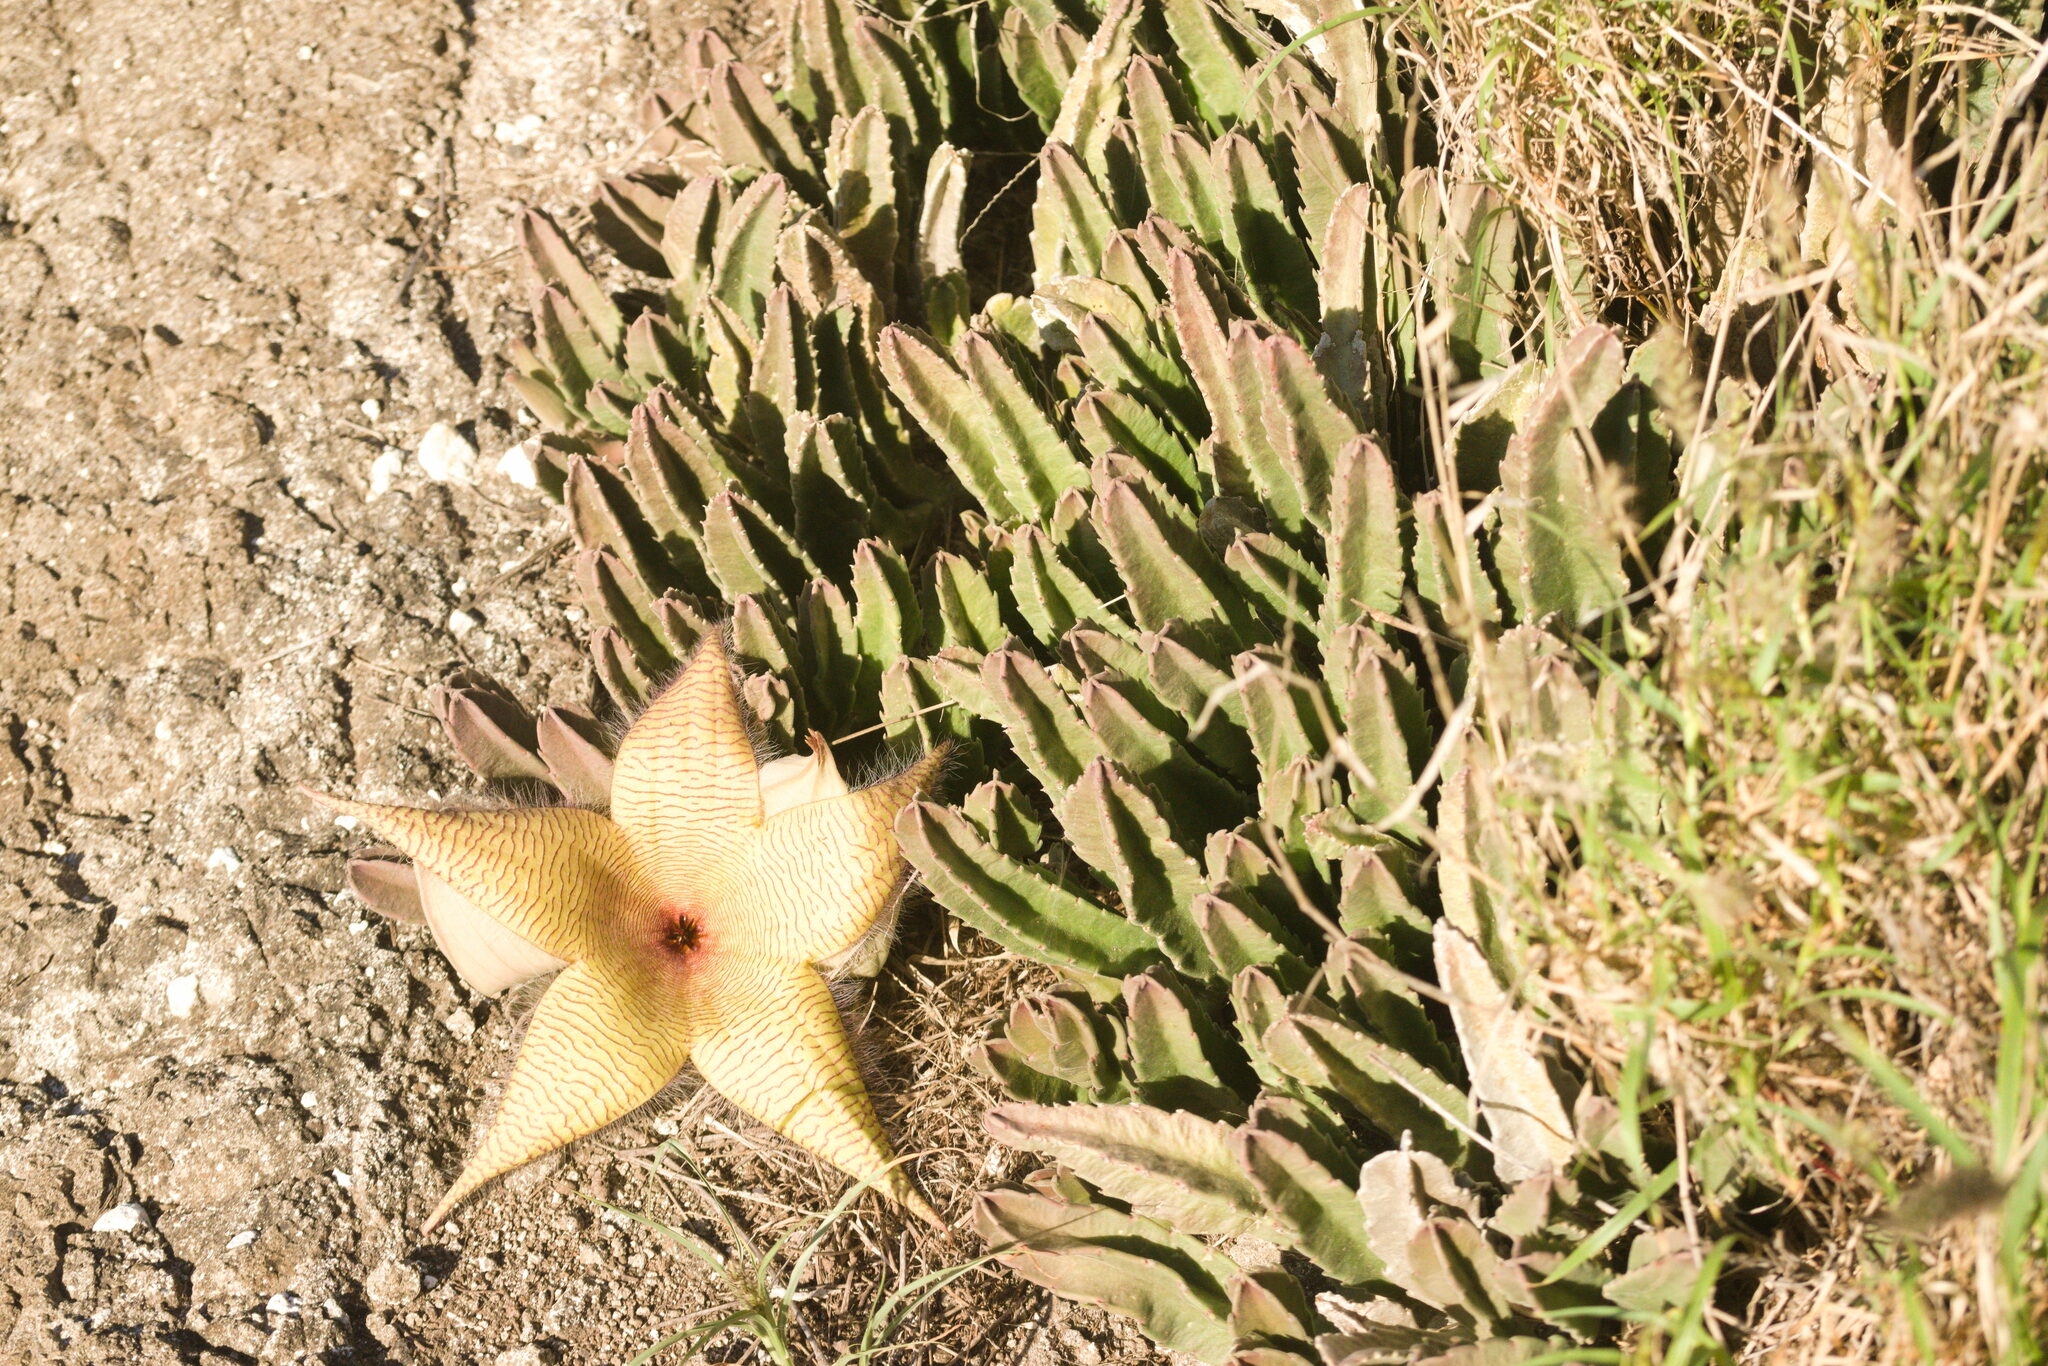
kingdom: Plantae
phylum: Tracheophyta
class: Magnoliopsida
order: Gentianales
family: Apocynaceae
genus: Ceropegia
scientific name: Ceropegia gigantea
